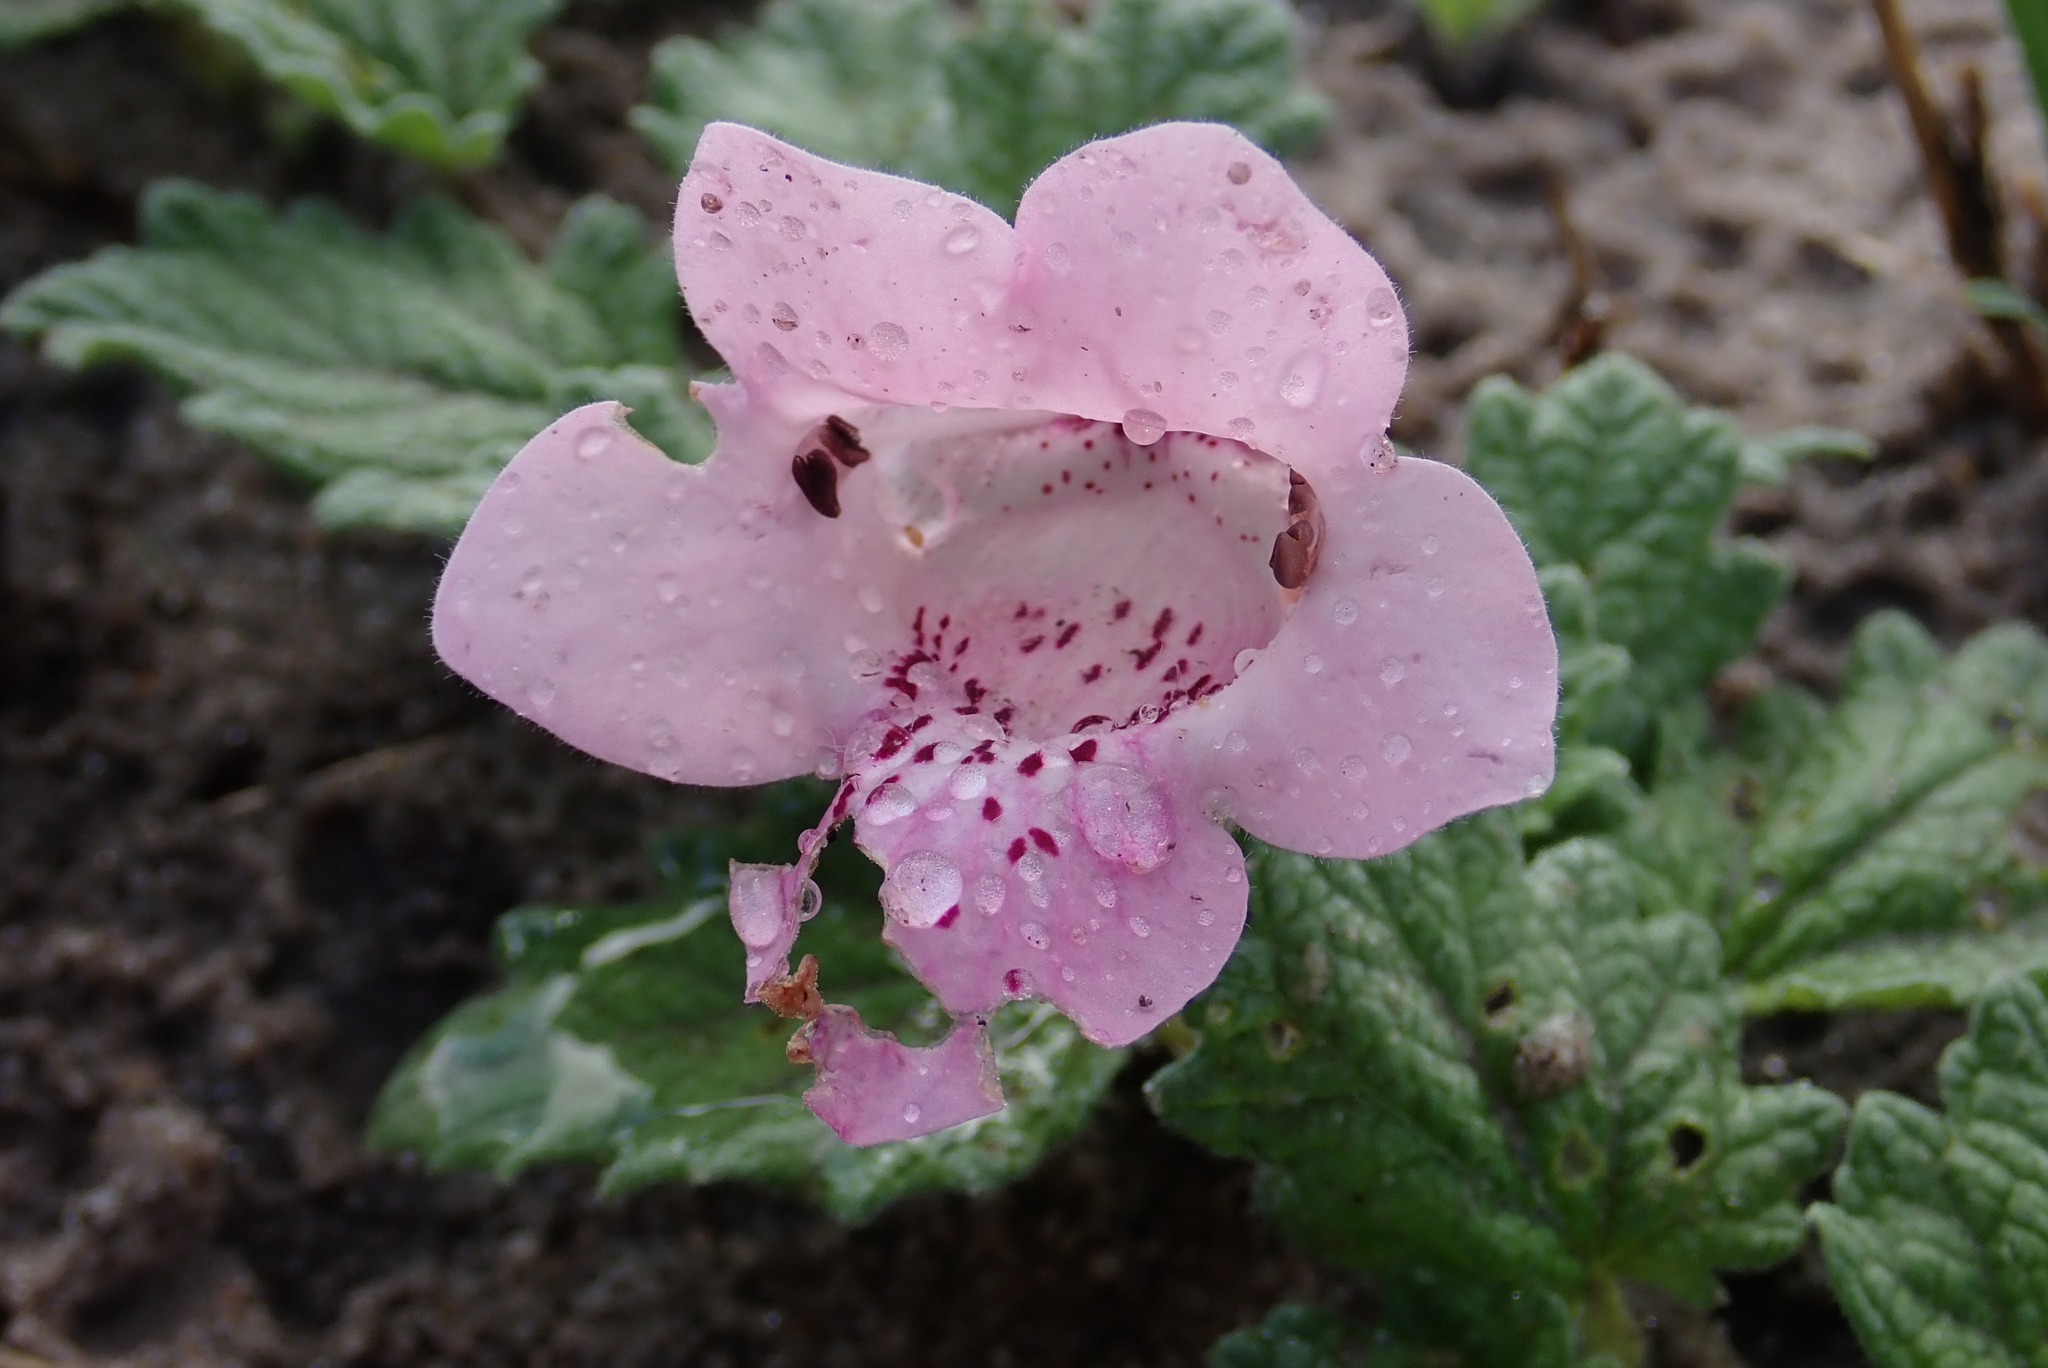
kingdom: Plantae
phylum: Tracheophyta
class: Magnoliopsida
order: Lamiales
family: Pedaliaceae
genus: Dicerocaryum
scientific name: Dicerocaryum eriocarpum
